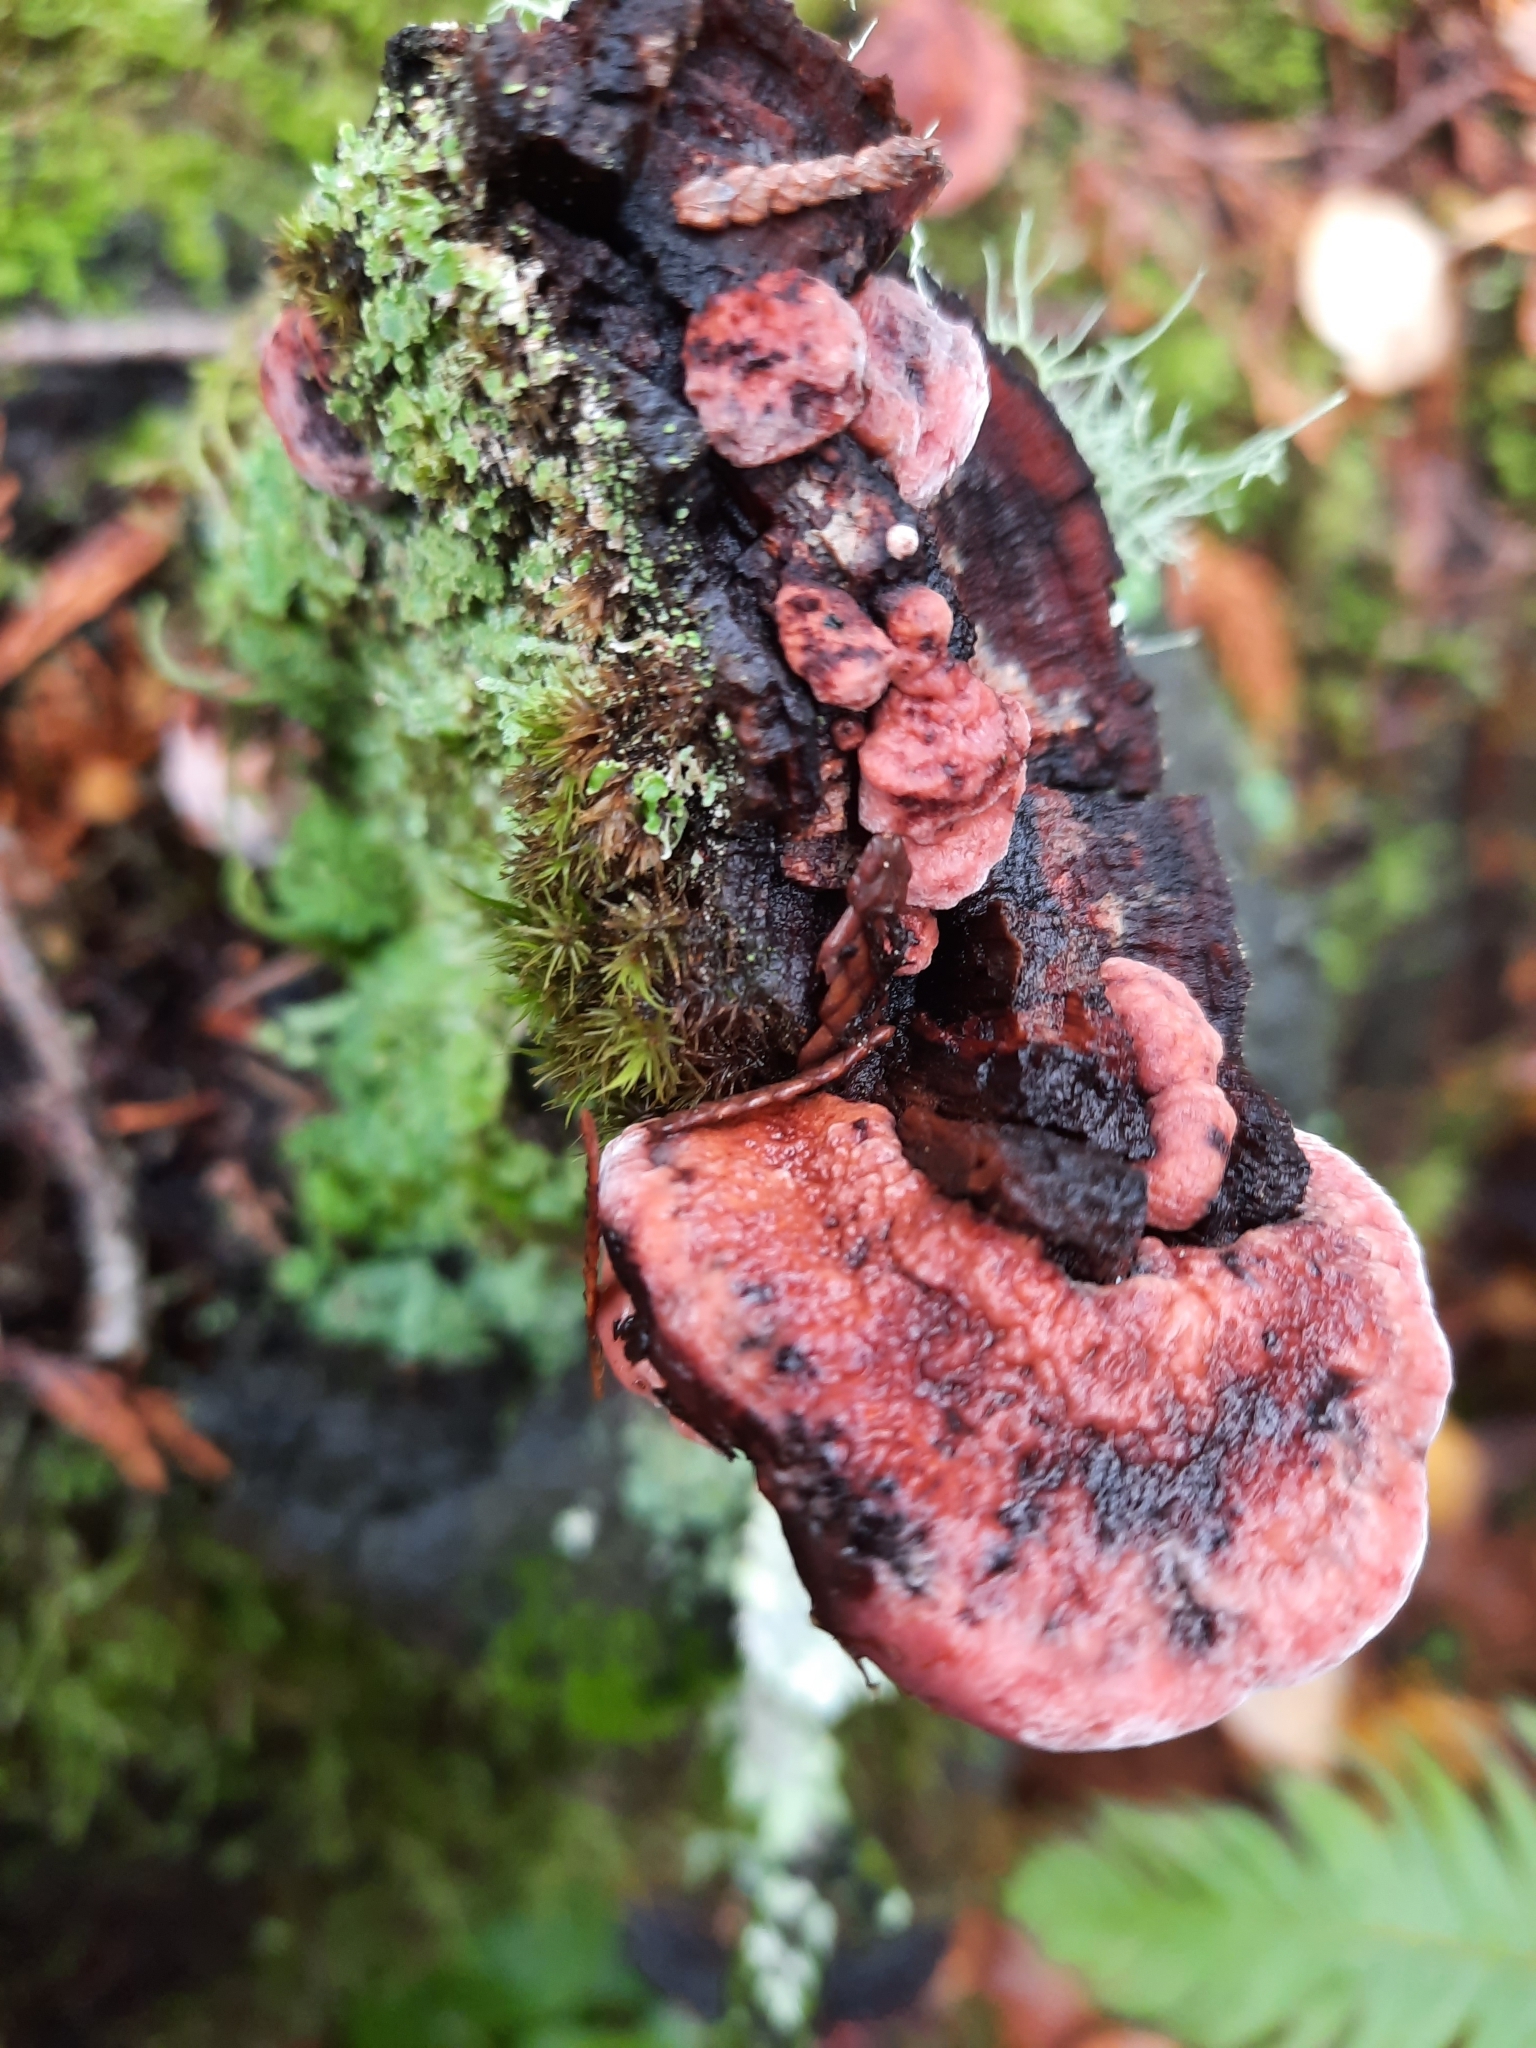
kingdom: Fungi
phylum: Basidiomycota
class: Agaricomycetes
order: Polyporales
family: Fomitopsidaceae
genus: Rhodofomes
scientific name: Rhodofomes cajanderi
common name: Rosy conk
